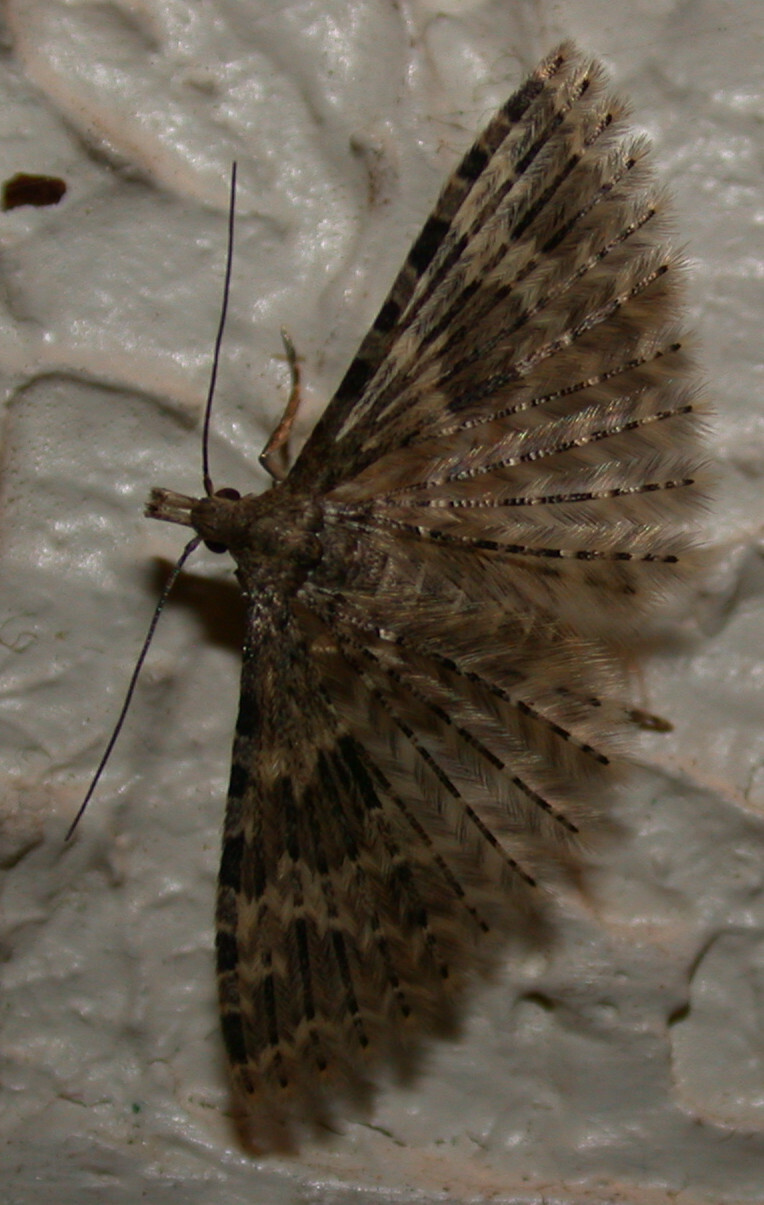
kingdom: Animalia
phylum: Arthropoda
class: Insecta
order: Lepidoptera
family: Alucitidae
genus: Alucita
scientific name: Alucita hexadactyla
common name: Twenty-plume moth
